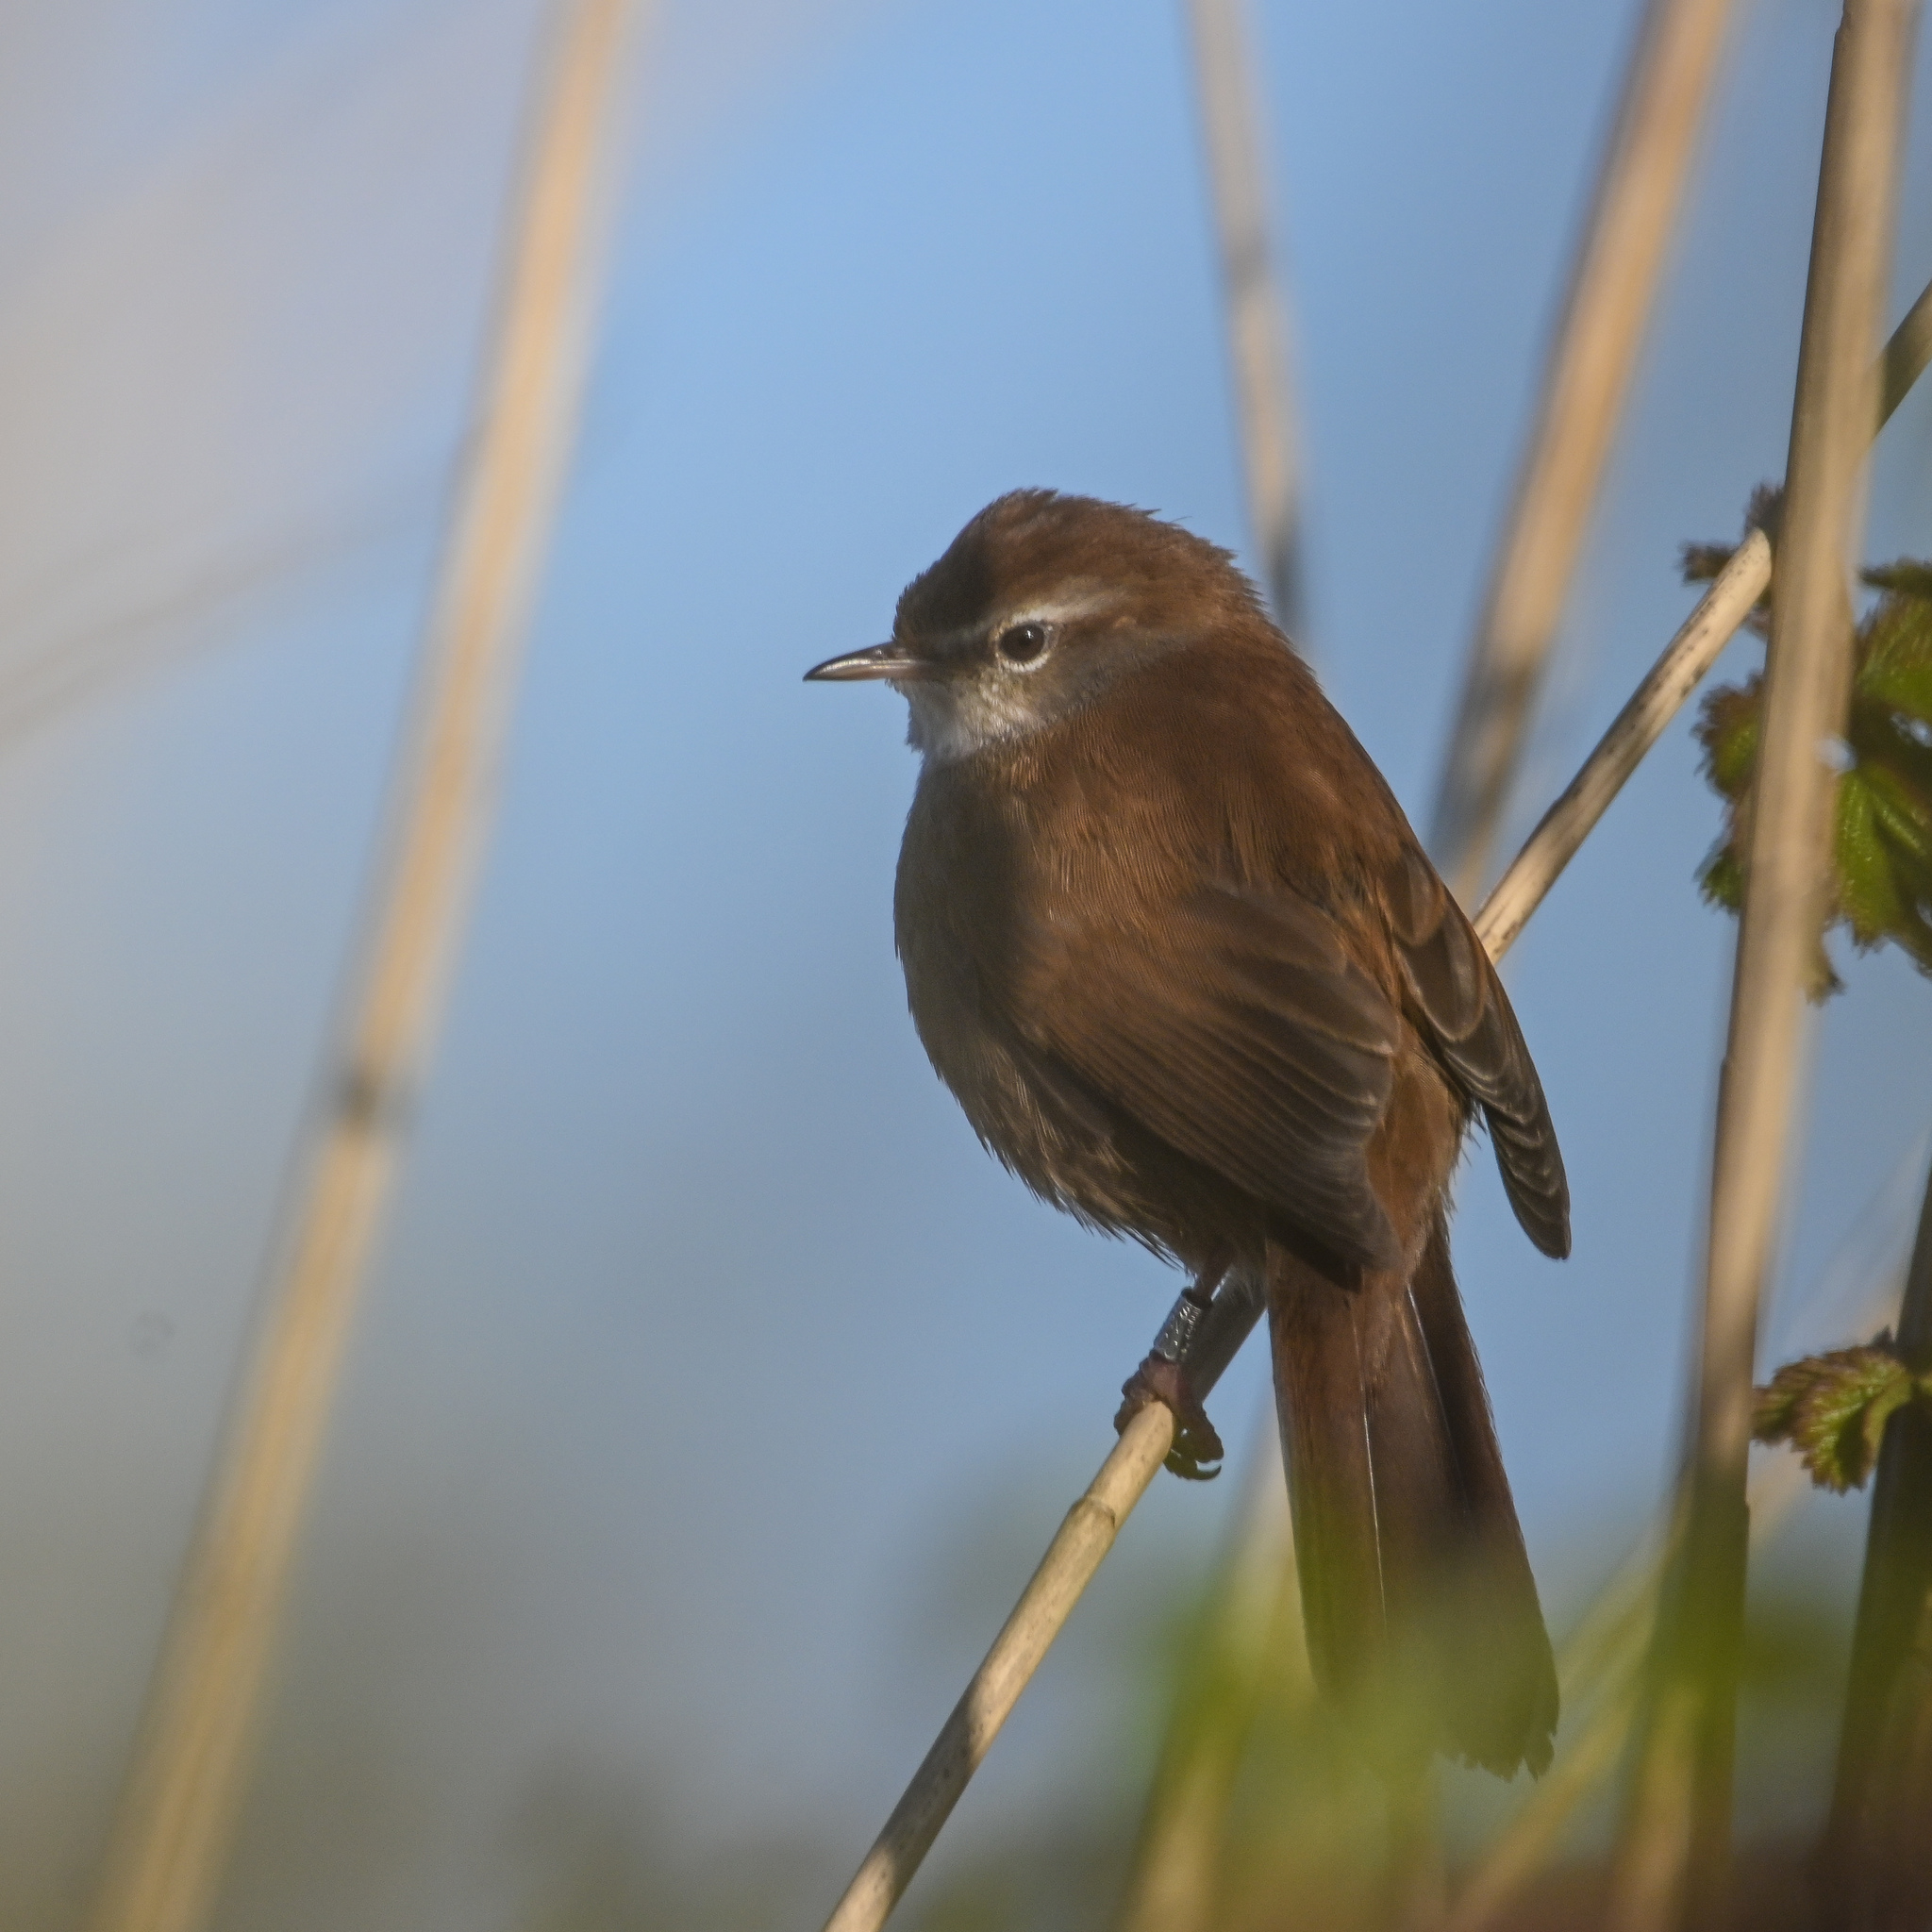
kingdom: Animalia
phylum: Chordata
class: Aves
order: Passeriformes
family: Cettiidae
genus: Cettia
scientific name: Cettia cetti
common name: Cetti's warbler
